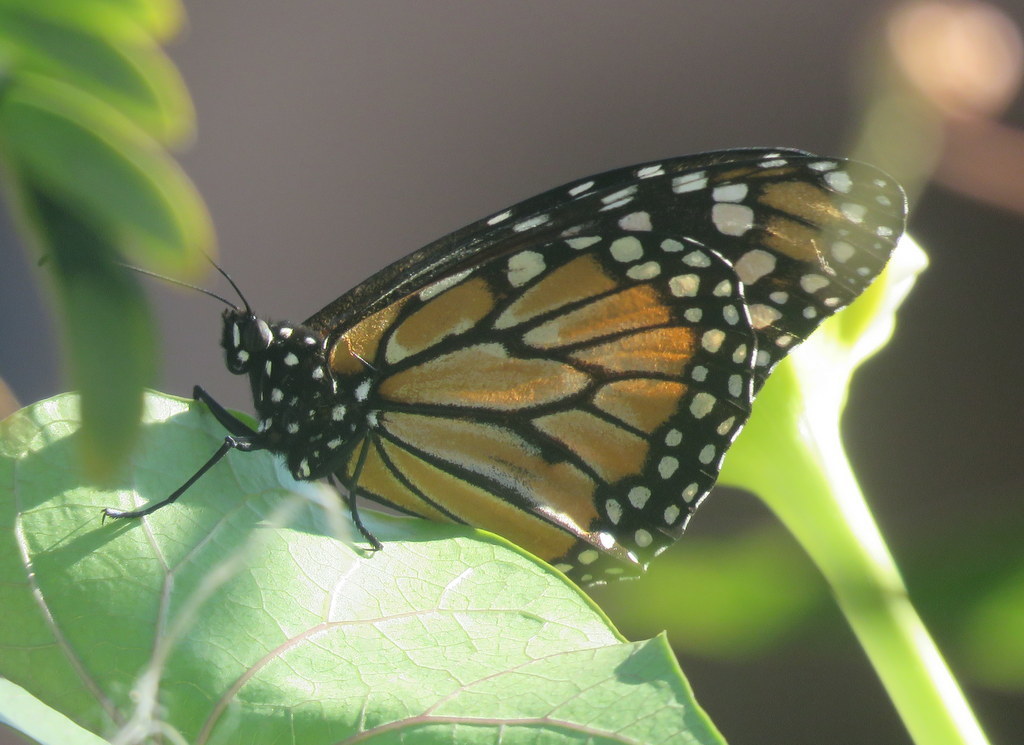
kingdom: Animalia
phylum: Arthropoda
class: Insecta
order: Lepidoptera
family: Nymphalidae
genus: Danaus
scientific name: Danaus erippus
